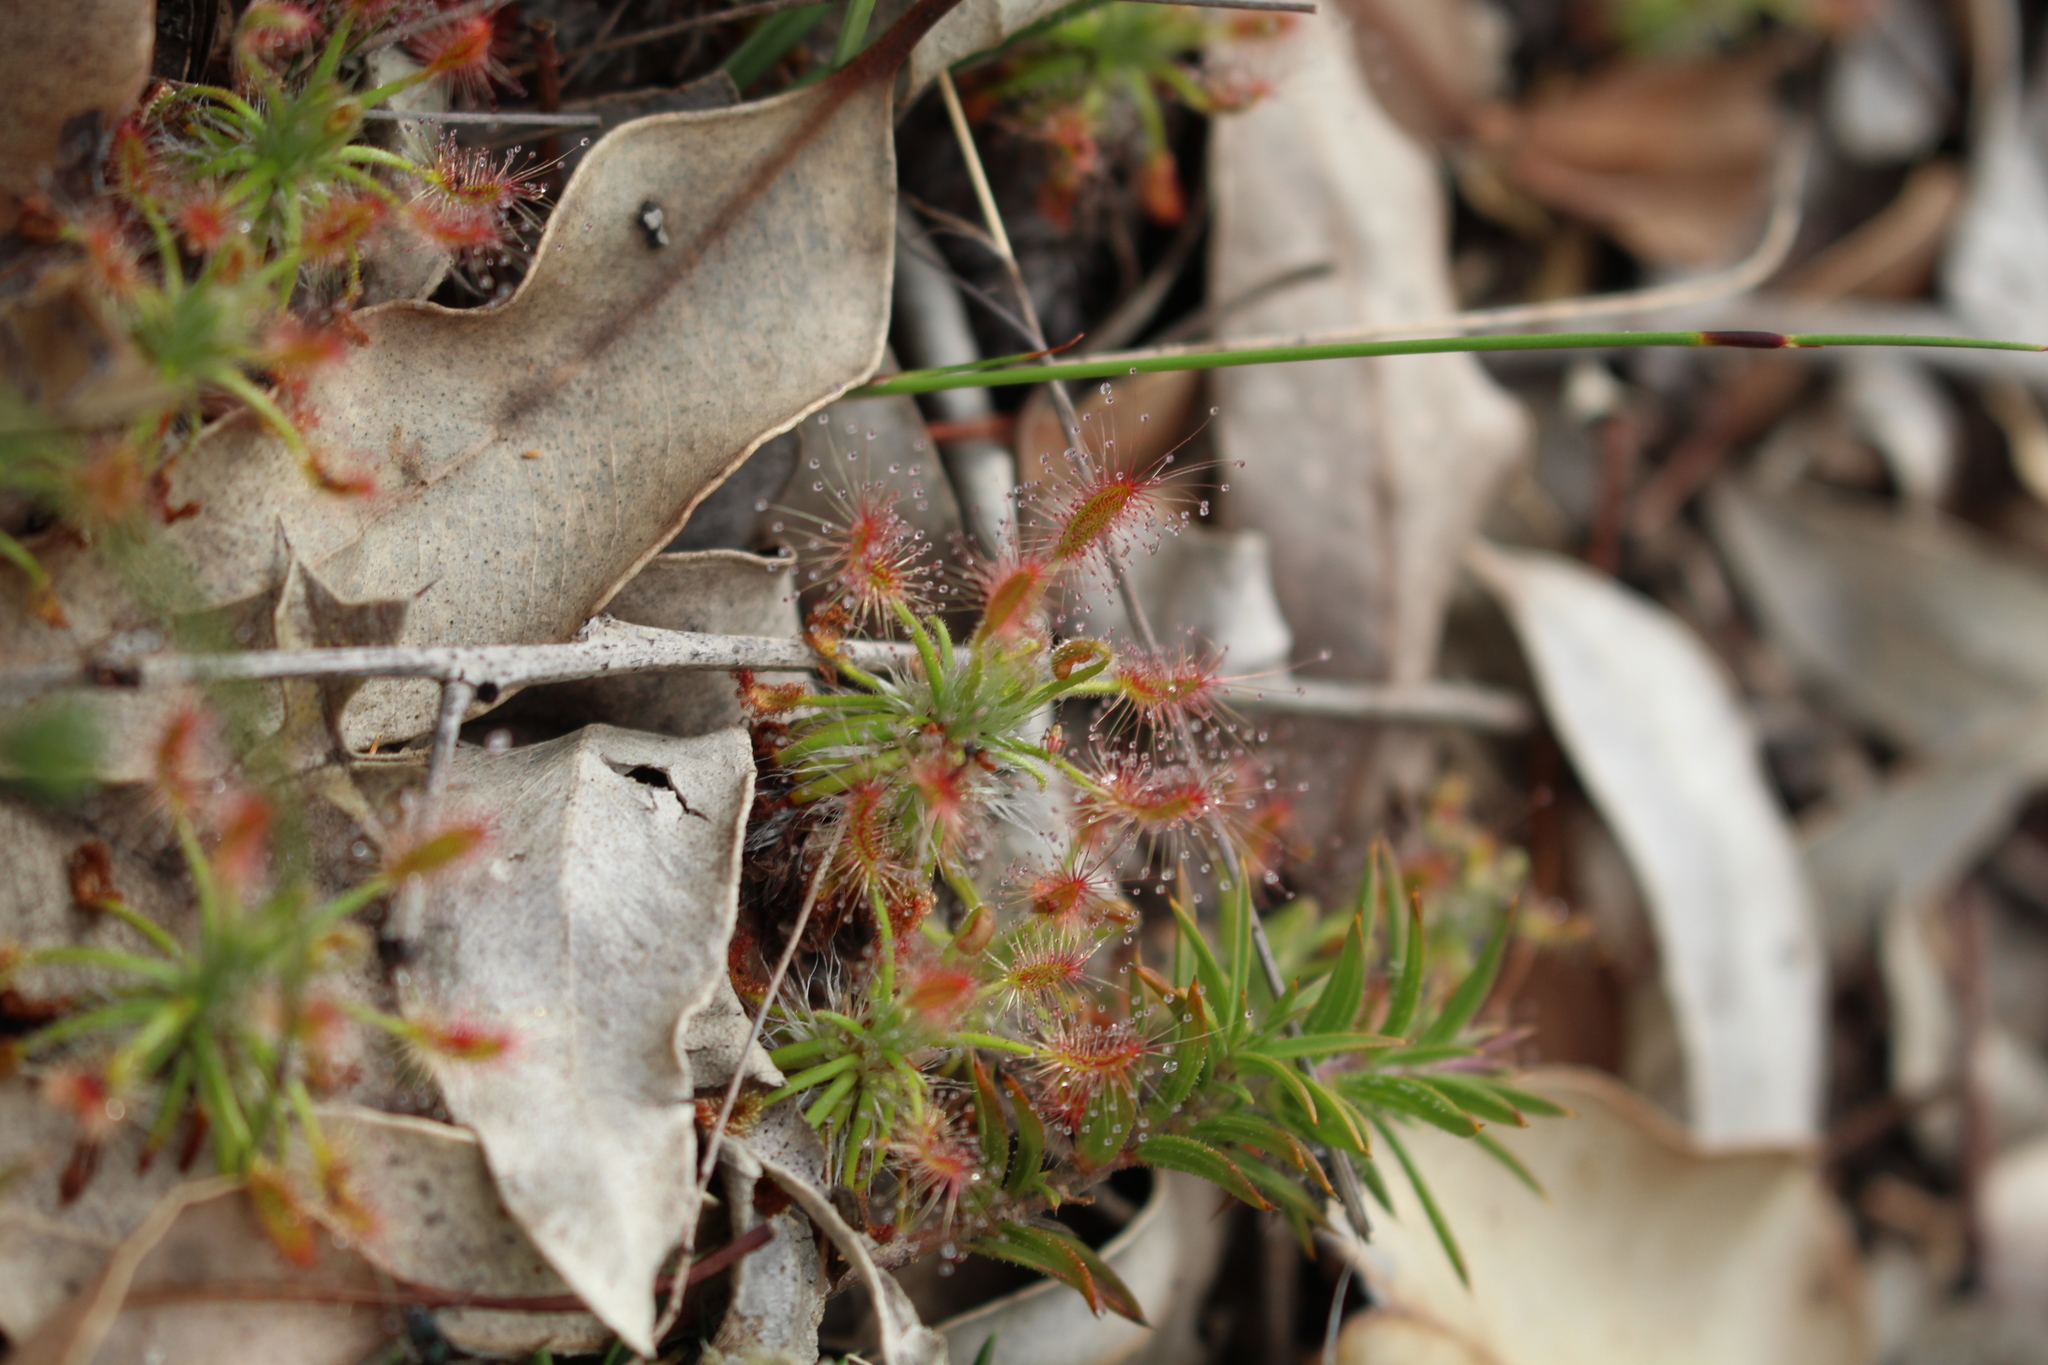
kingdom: Plantae
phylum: Tracheophyta
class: Magnoliopsida
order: Caryophyllales
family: Droseraceae
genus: Drosera
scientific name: Drosera scorpioides
